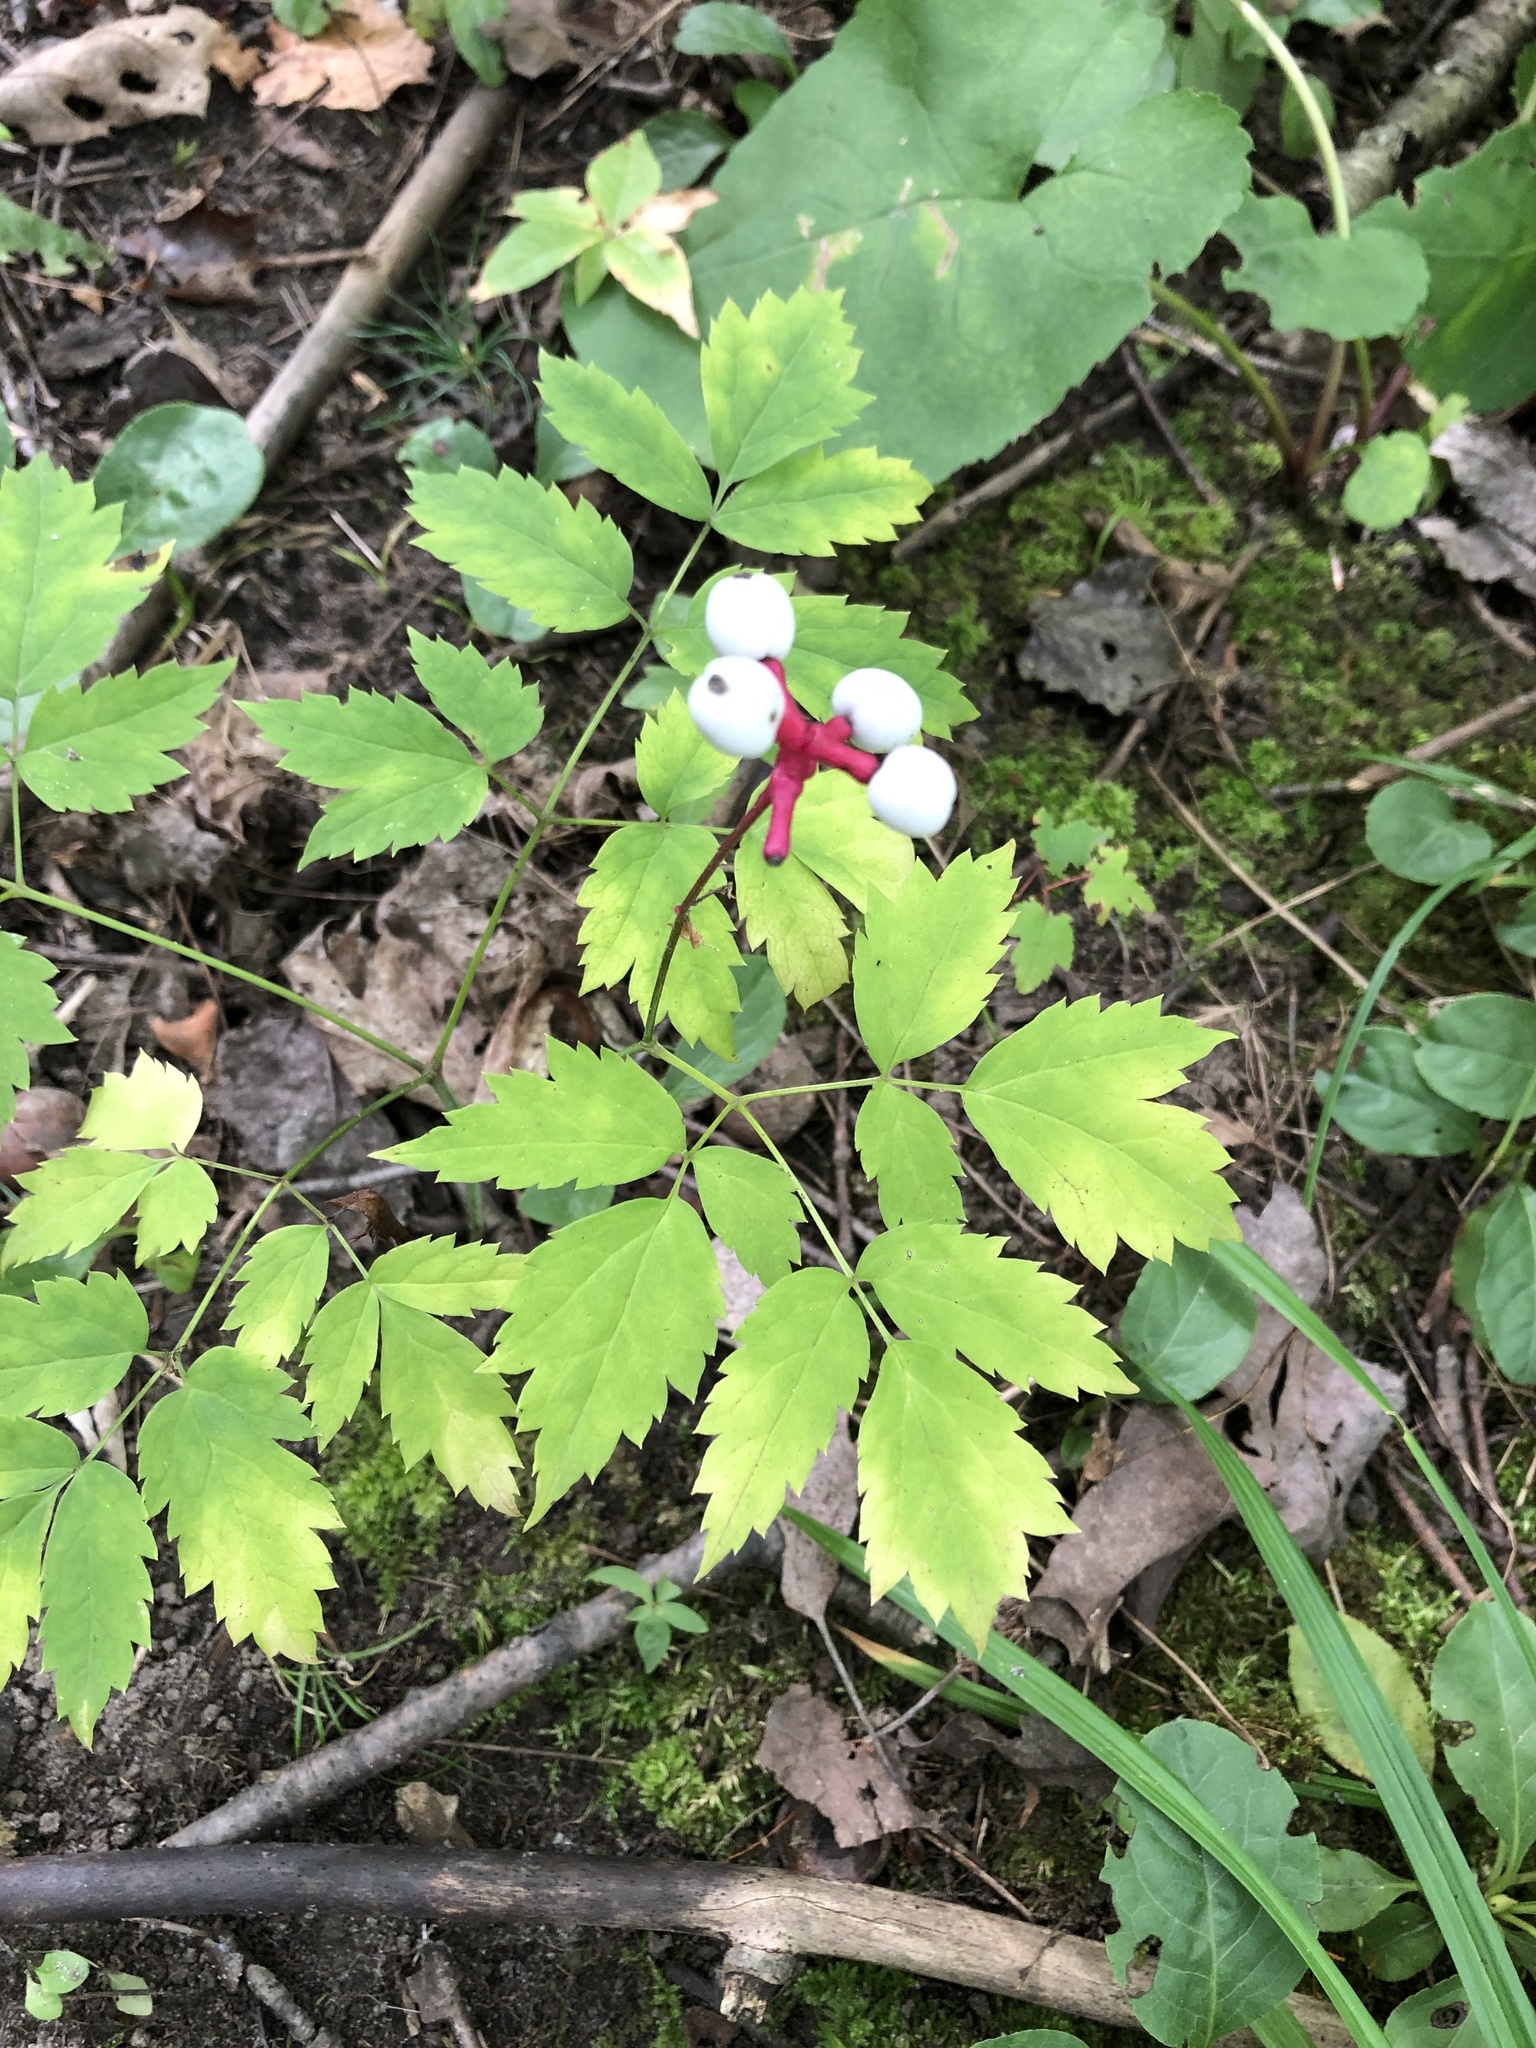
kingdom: Plantae
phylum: Tracheophyta
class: Magnoliopsida
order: Ranunculales
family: Ranunculaceae
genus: Actaea
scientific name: Actaea pachypoda
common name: Doll's-eyes
